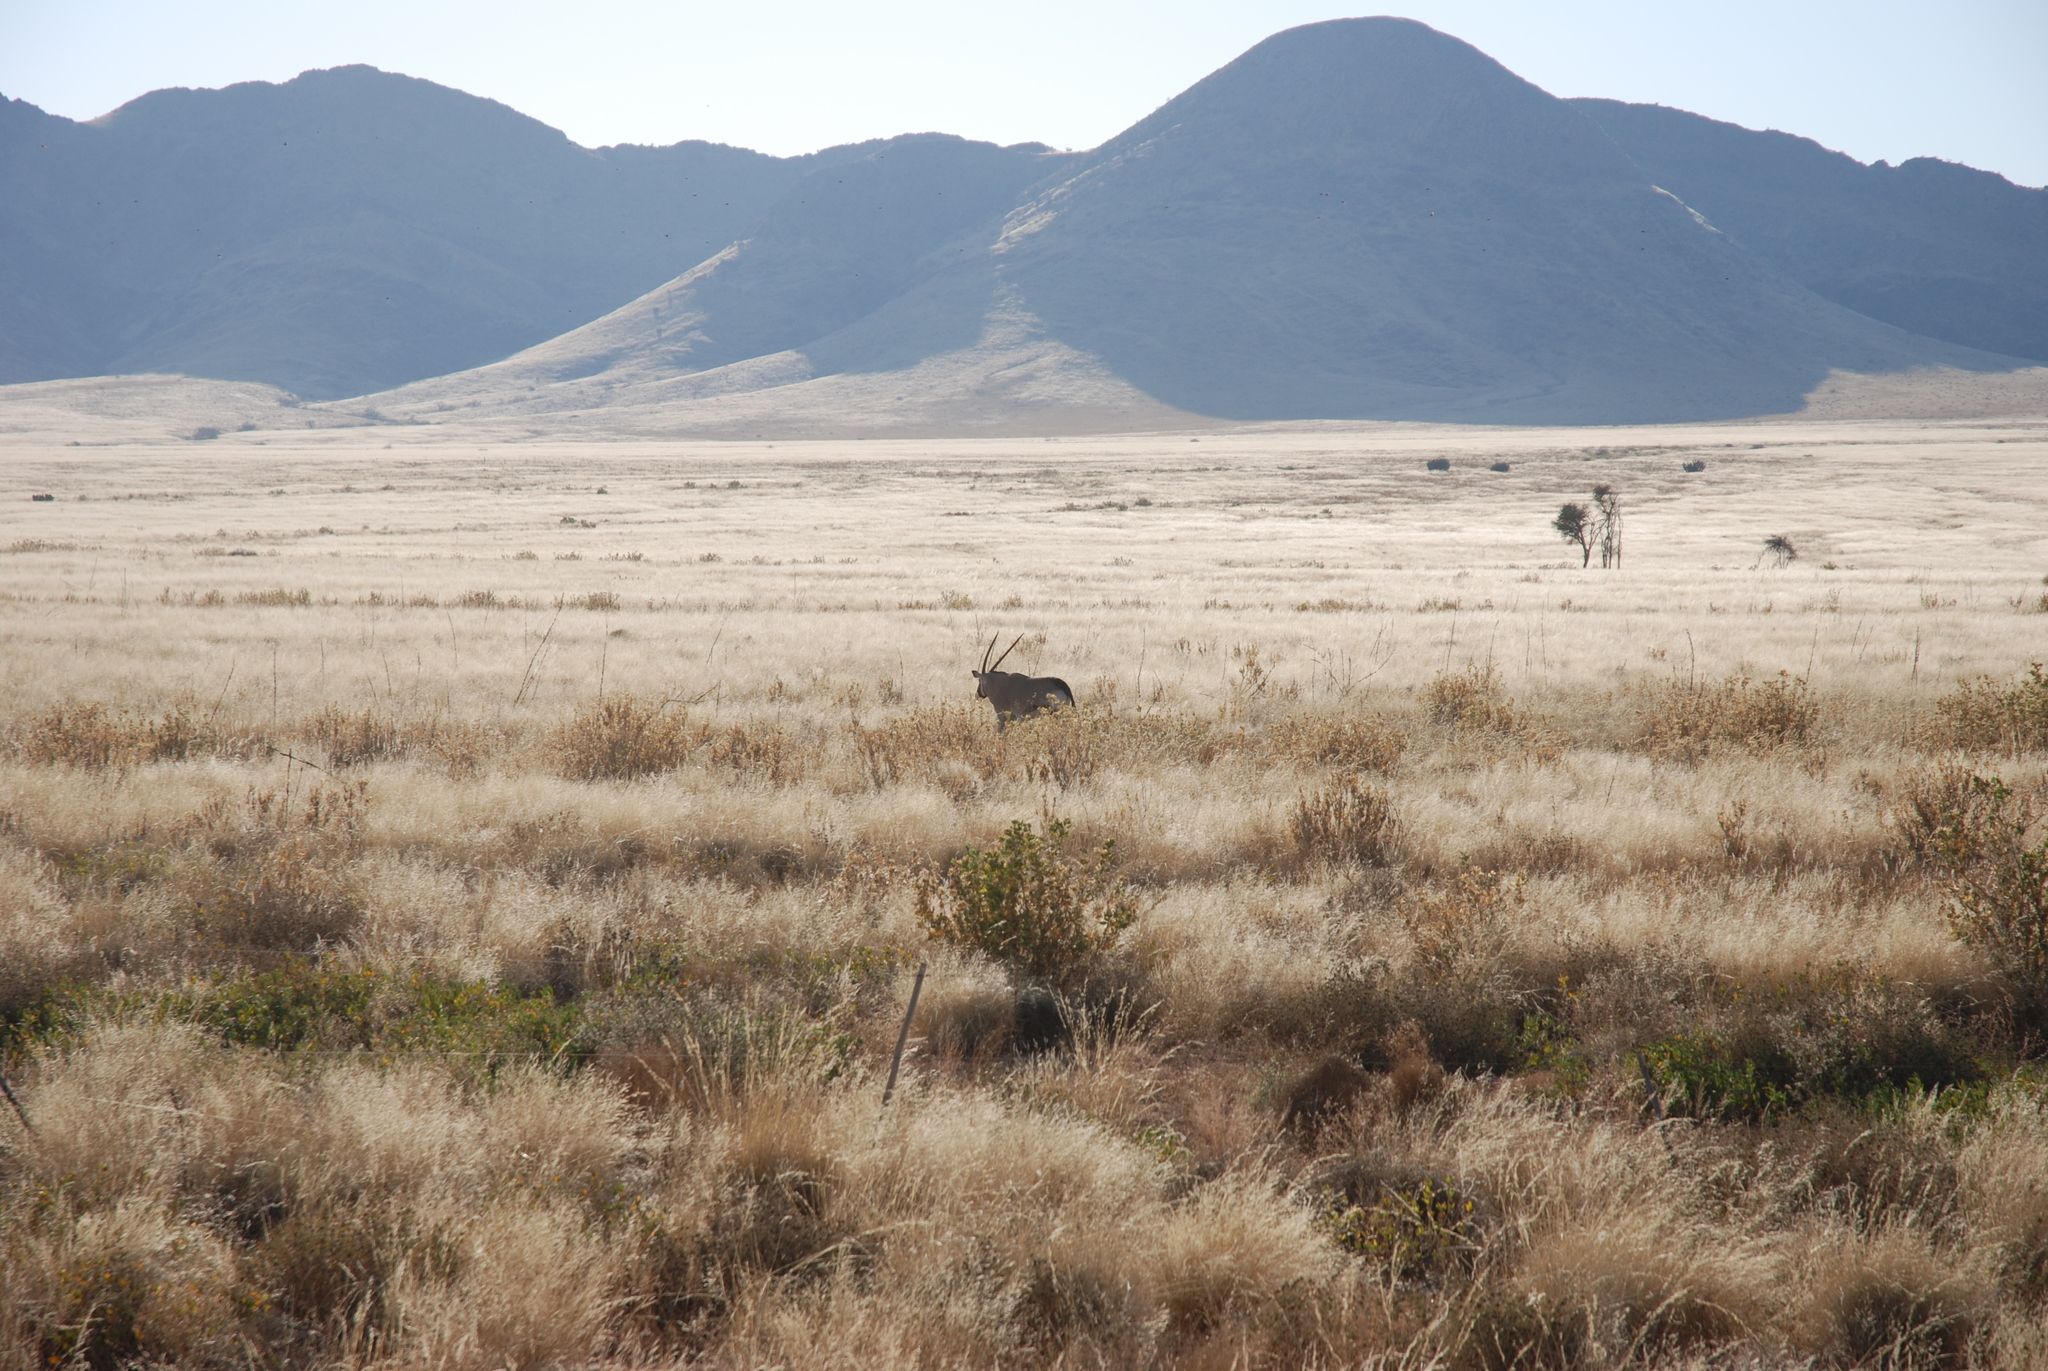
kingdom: Animalia
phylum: Chordata
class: Mammalia
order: Artiodactyla
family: Bovidae
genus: Oryx
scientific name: Oryx gazella
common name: Gemsbok
